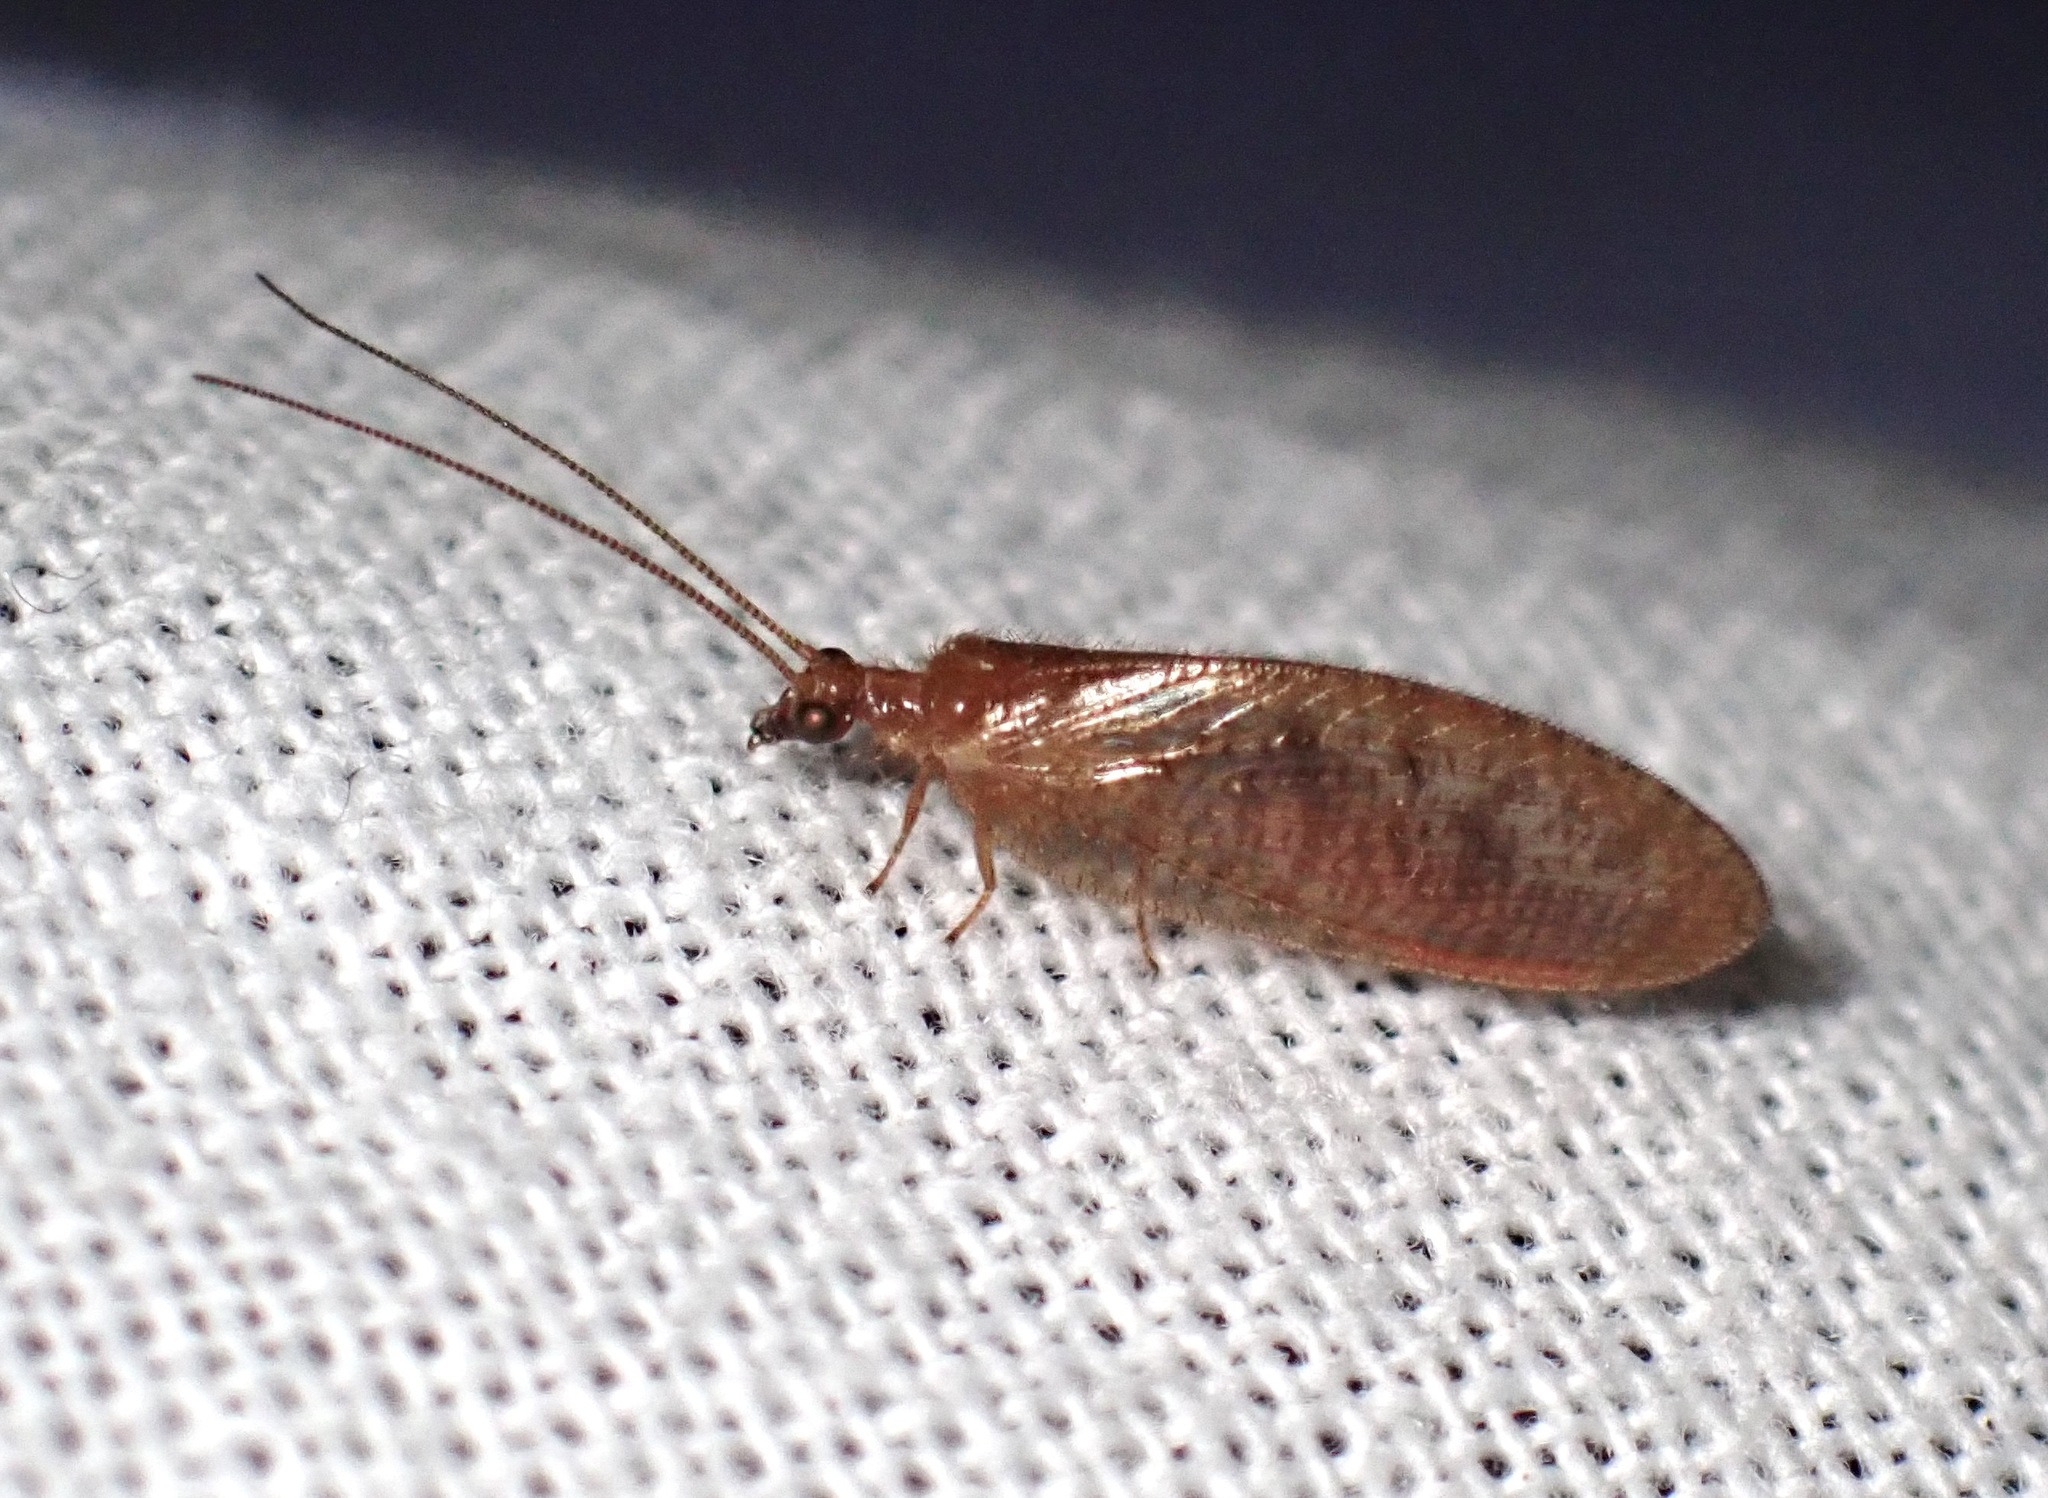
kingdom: Animalia
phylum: Arthropoda
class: Insecta
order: Neuroptera
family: Hemerobiidae
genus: Hemerobius
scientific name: Hemerobius stigma
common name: Brown pine lacewing
